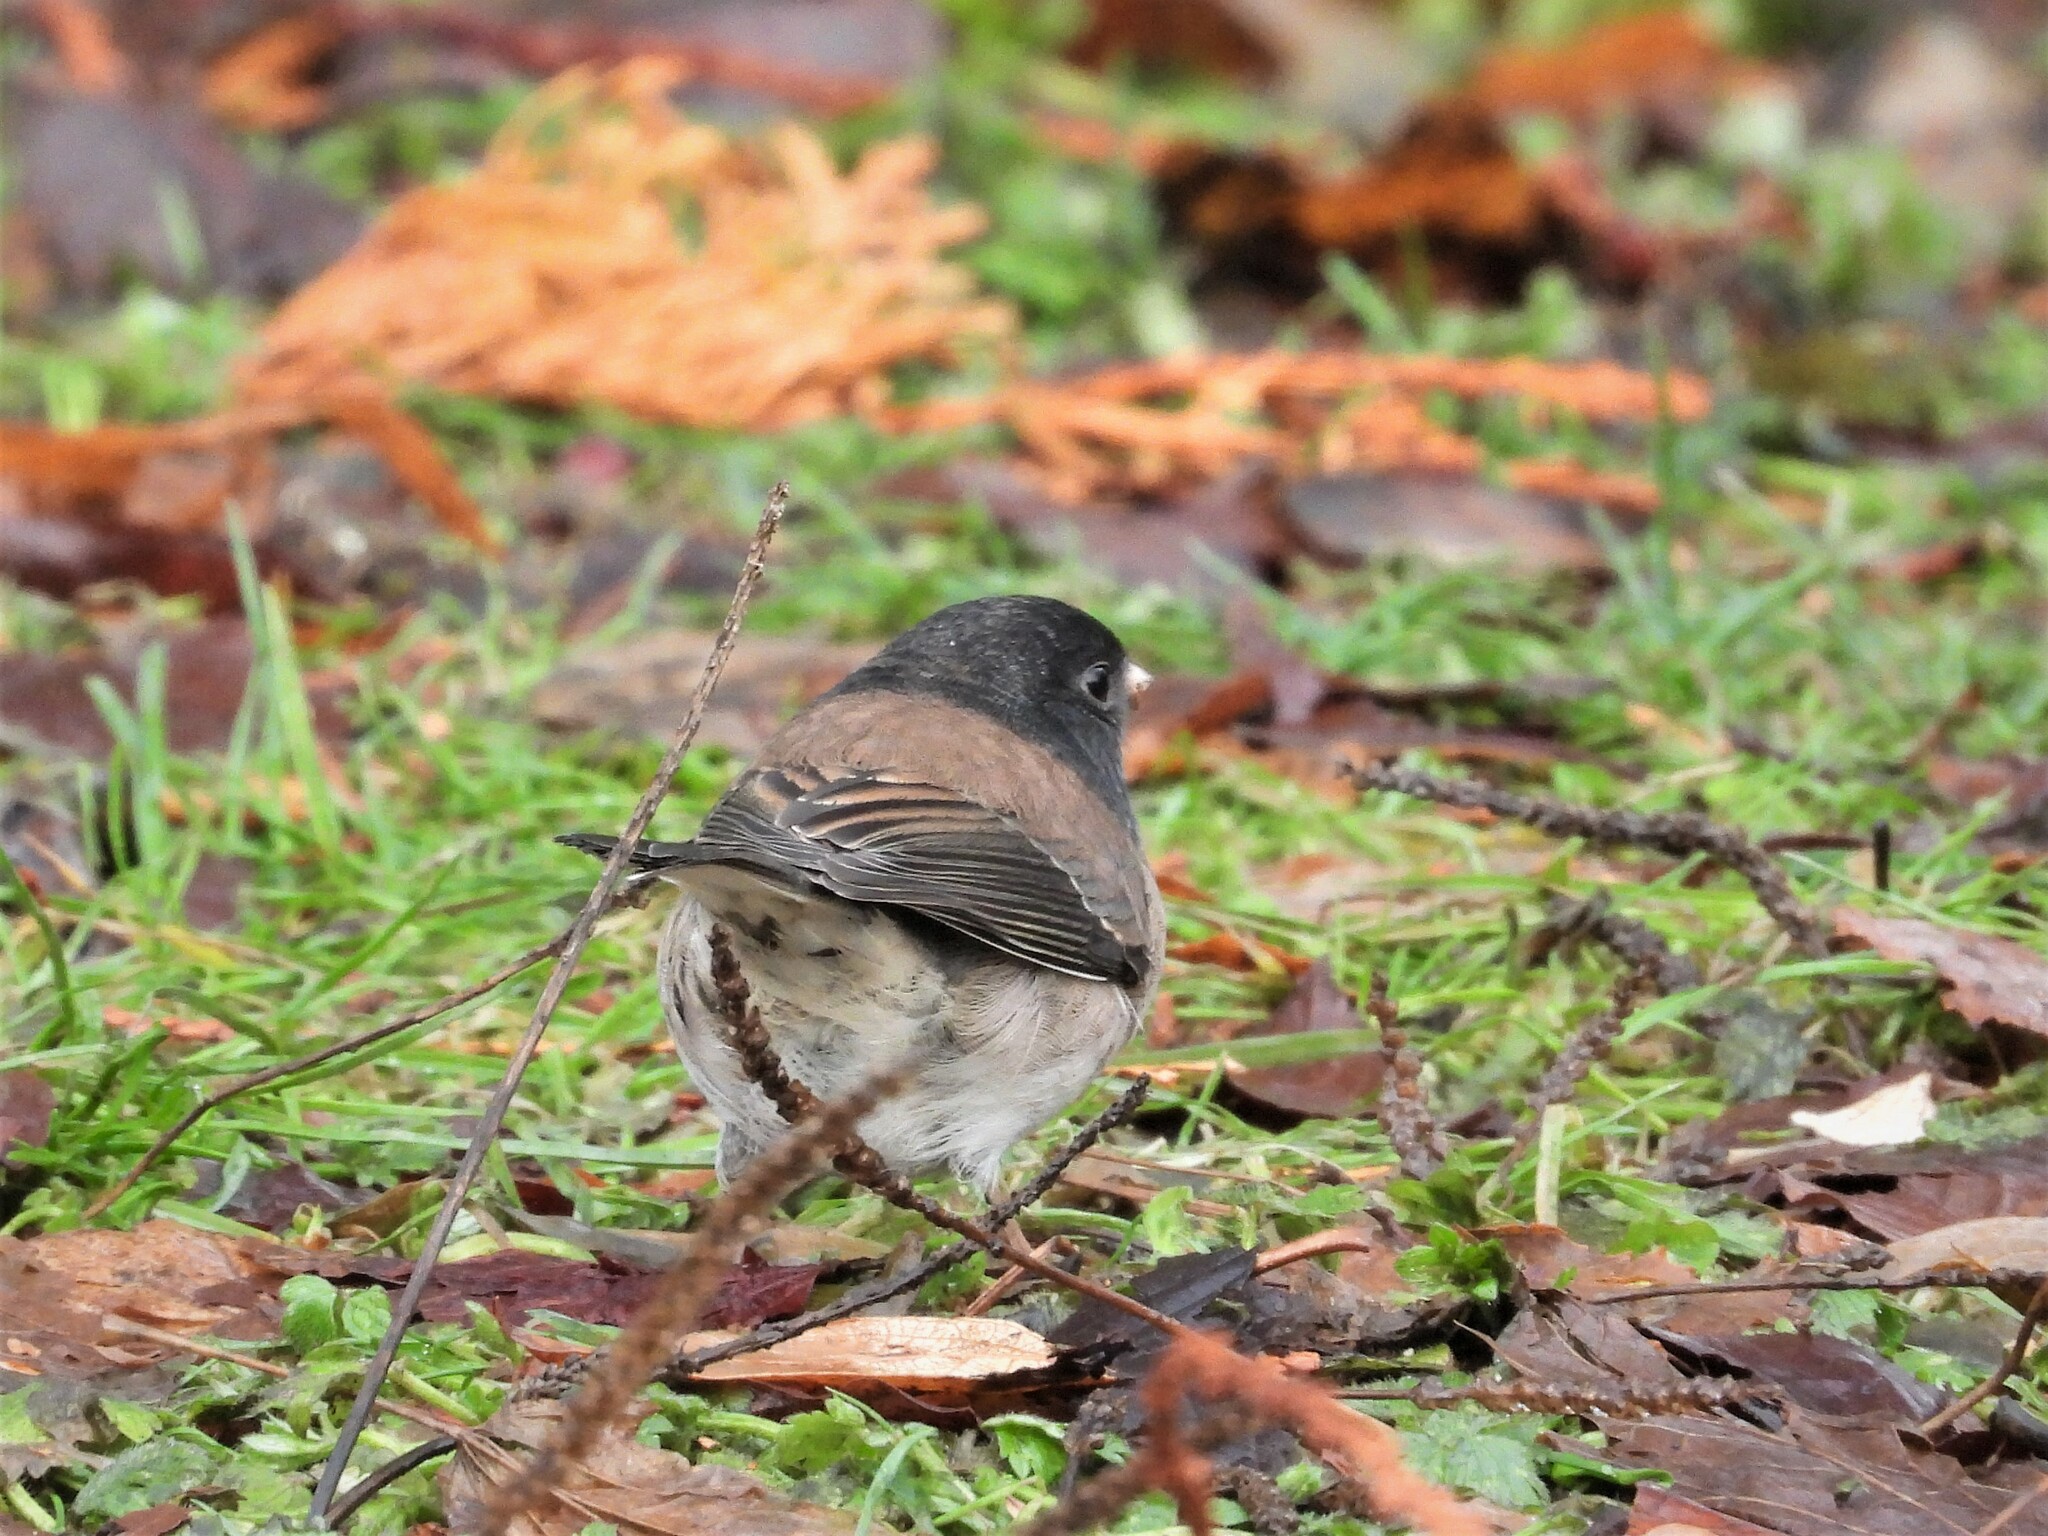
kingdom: Animalia
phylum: Chordata
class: Aves
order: Passeriformes
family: Passerellidae
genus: Junco
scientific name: Junco hyemalis
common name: Dark-eyed junco
